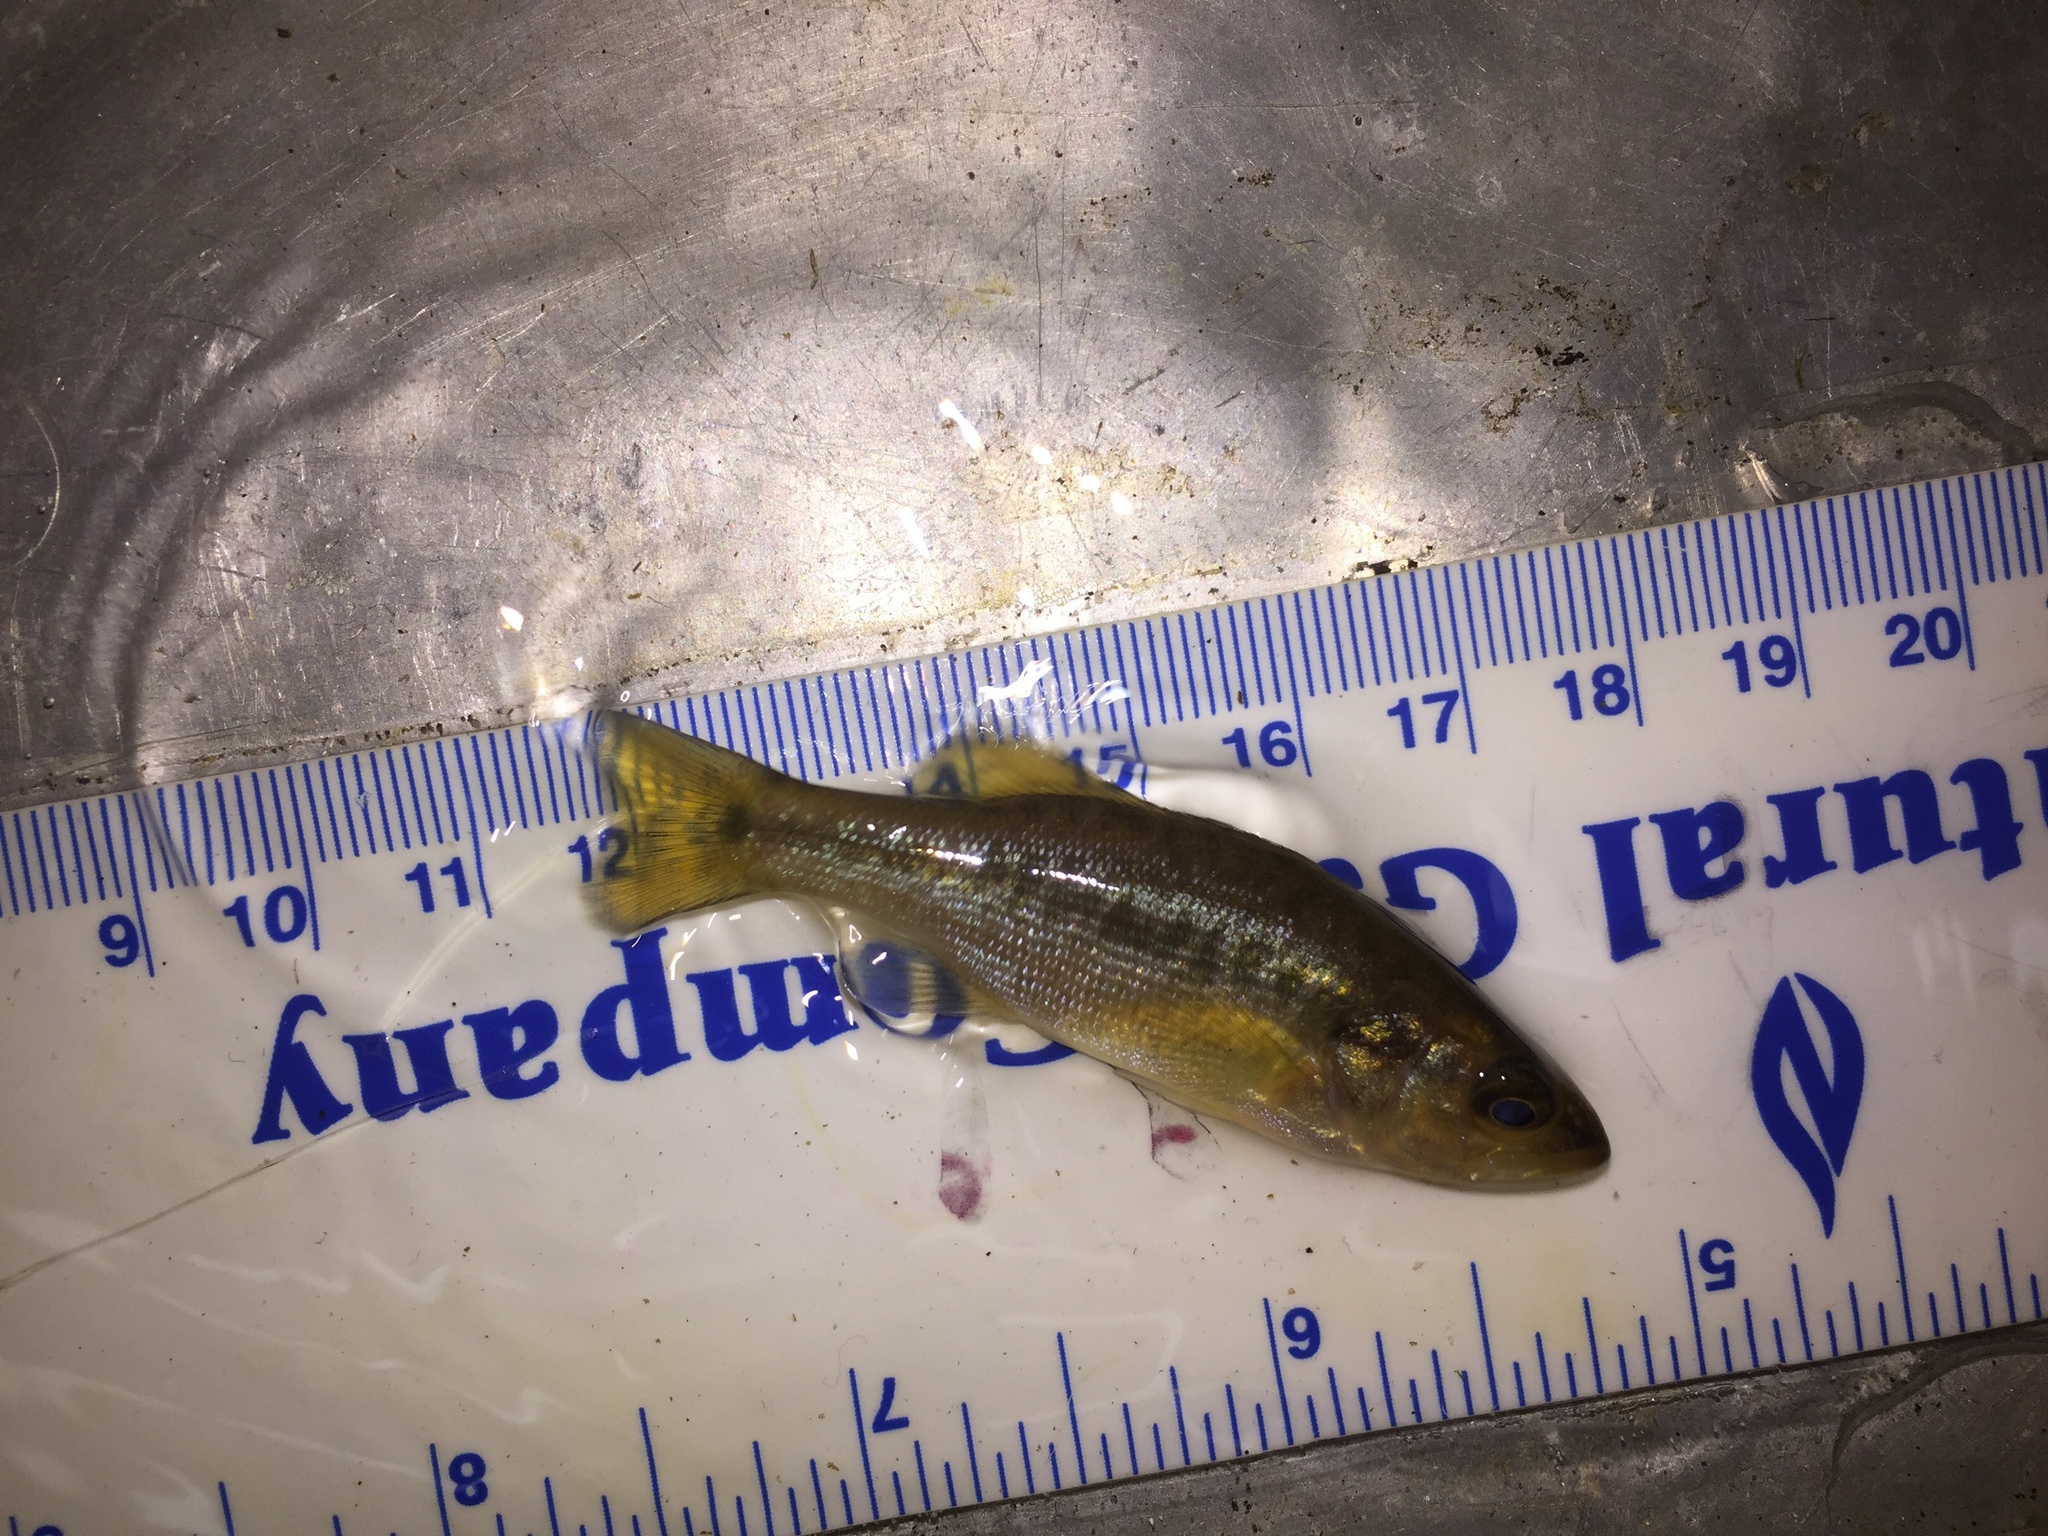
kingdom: Animalia
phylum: Chordata
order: Perciformes
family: Centrarchidae
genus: Micropterus
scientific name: Micropterus
